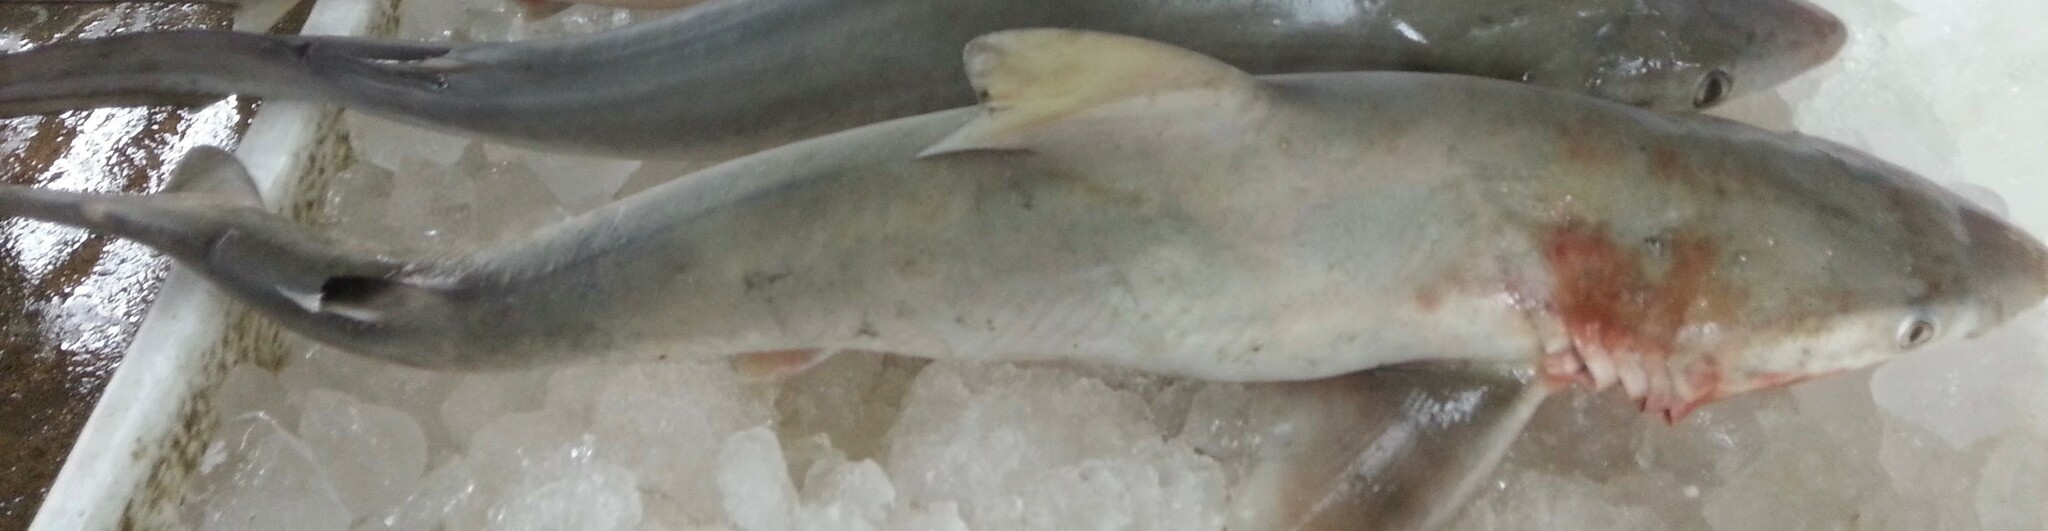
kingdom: Animalia
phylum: Chordata
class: Elasmobranchii
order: Carcharhiniformes
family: Carcharhinidae
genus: Carcharhinus
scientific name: Carcharhinus dussumieri
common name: Whitecheek shark
